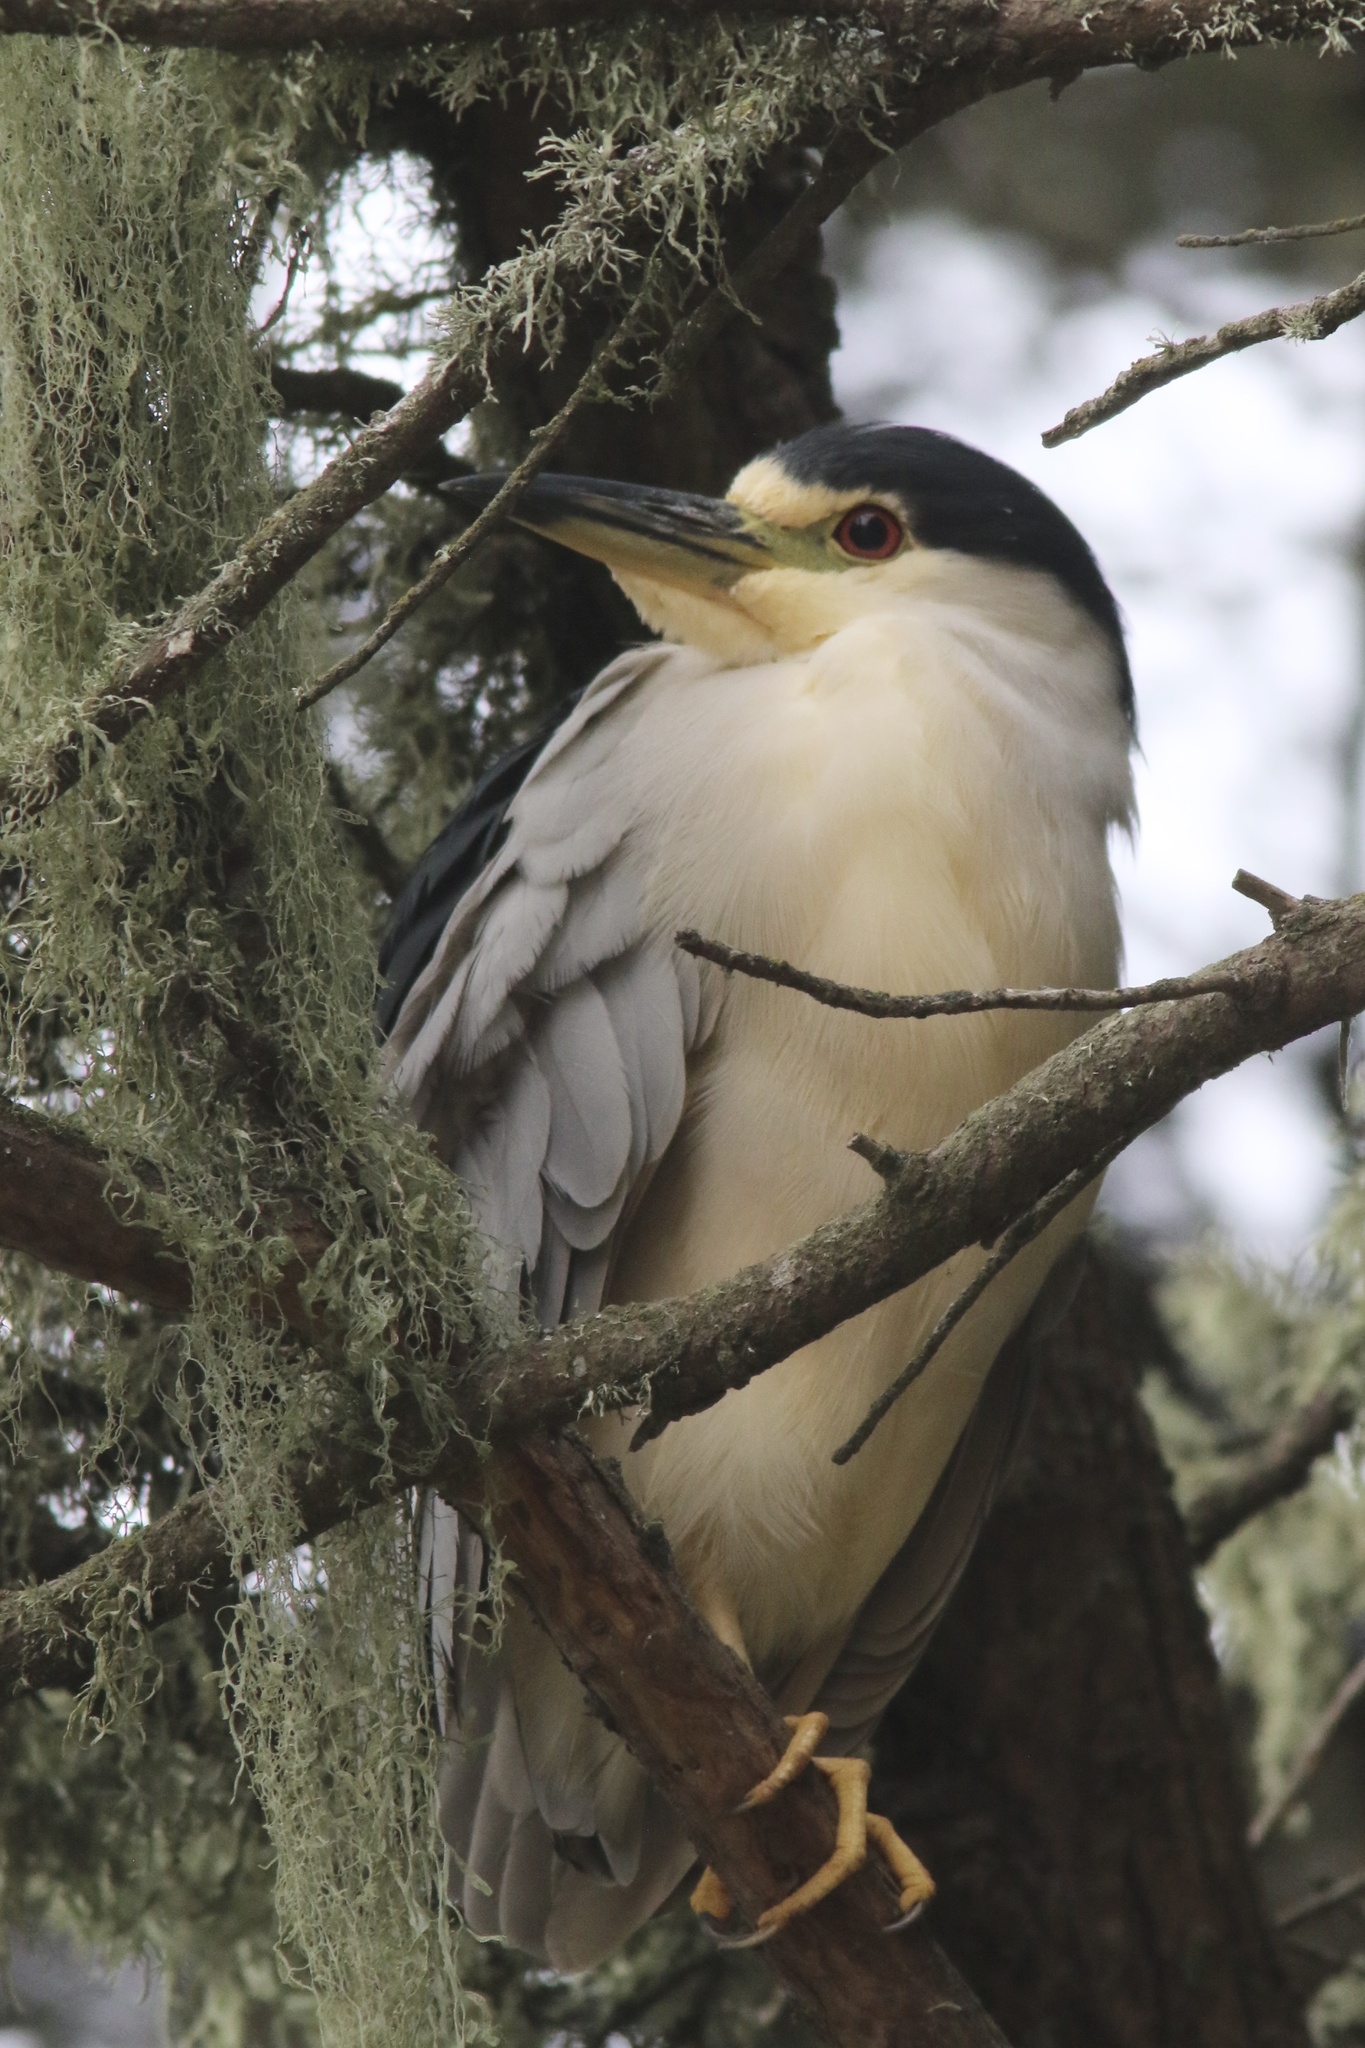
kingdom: Animalia
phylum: Chordata
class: Aves
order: Pelecaniformes
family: Ardeidae
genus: Nycticorax
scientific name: Nycticorax nycticorax
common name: Black-crowned night heron
